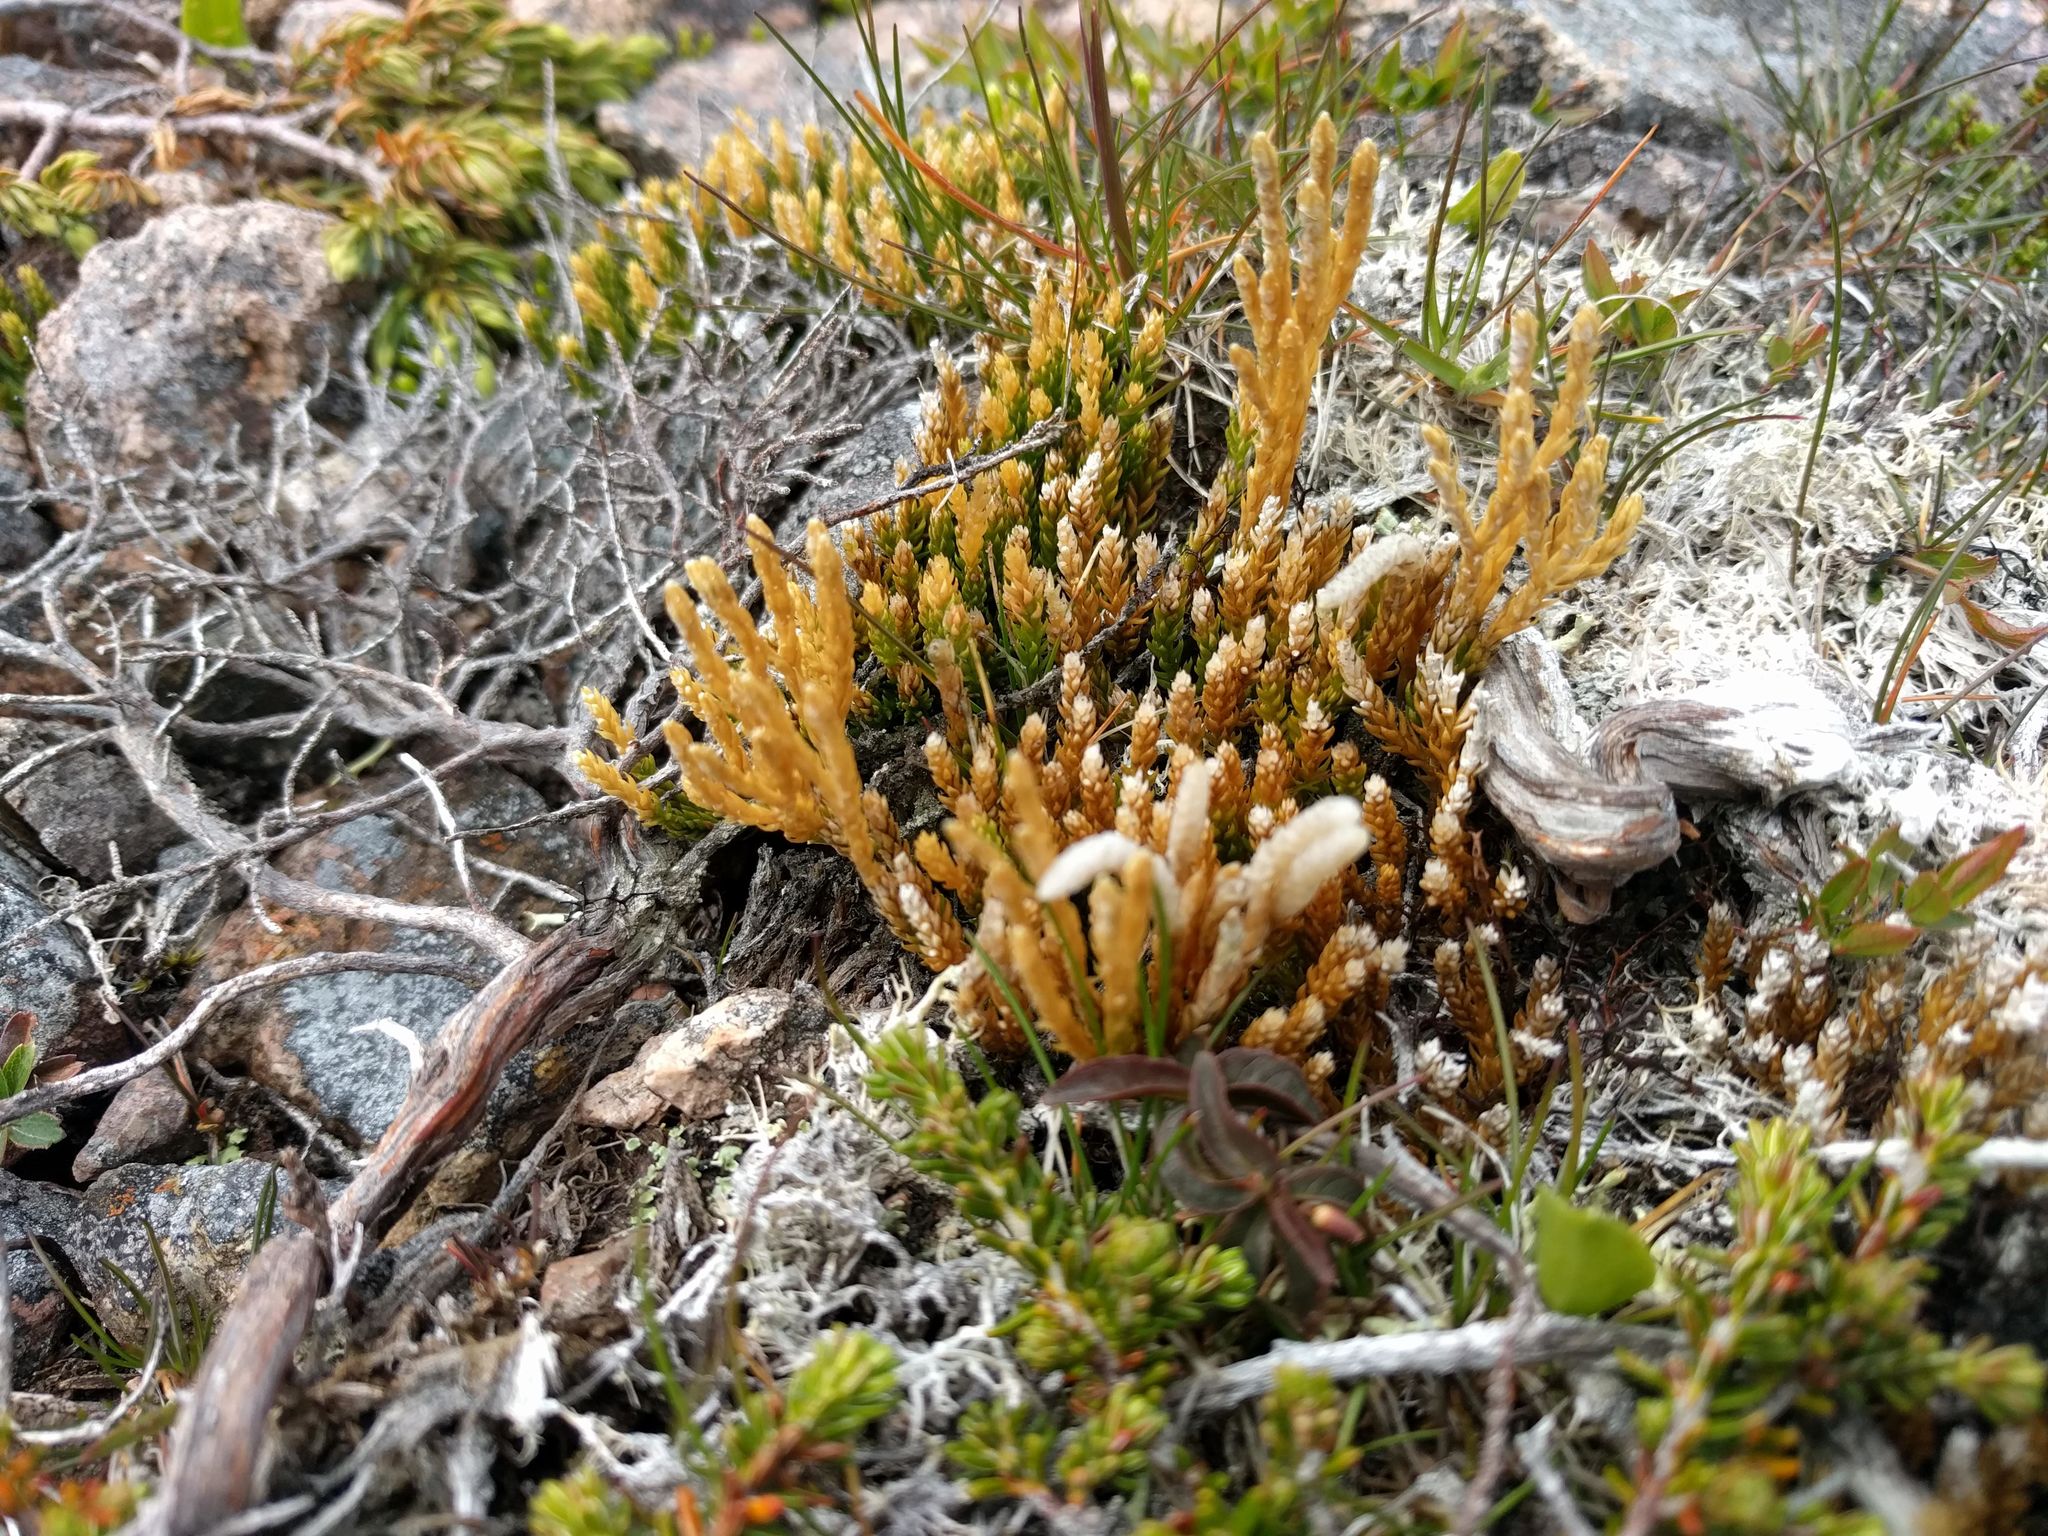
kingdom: Plantae
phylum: Tracheophyta
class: Lycopodiopsida
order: Lycopodiales
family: Lycopodiaceae
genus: Diphasiastrum
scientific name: Diphasiastrum sitchense
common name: Alaska clubmoss
